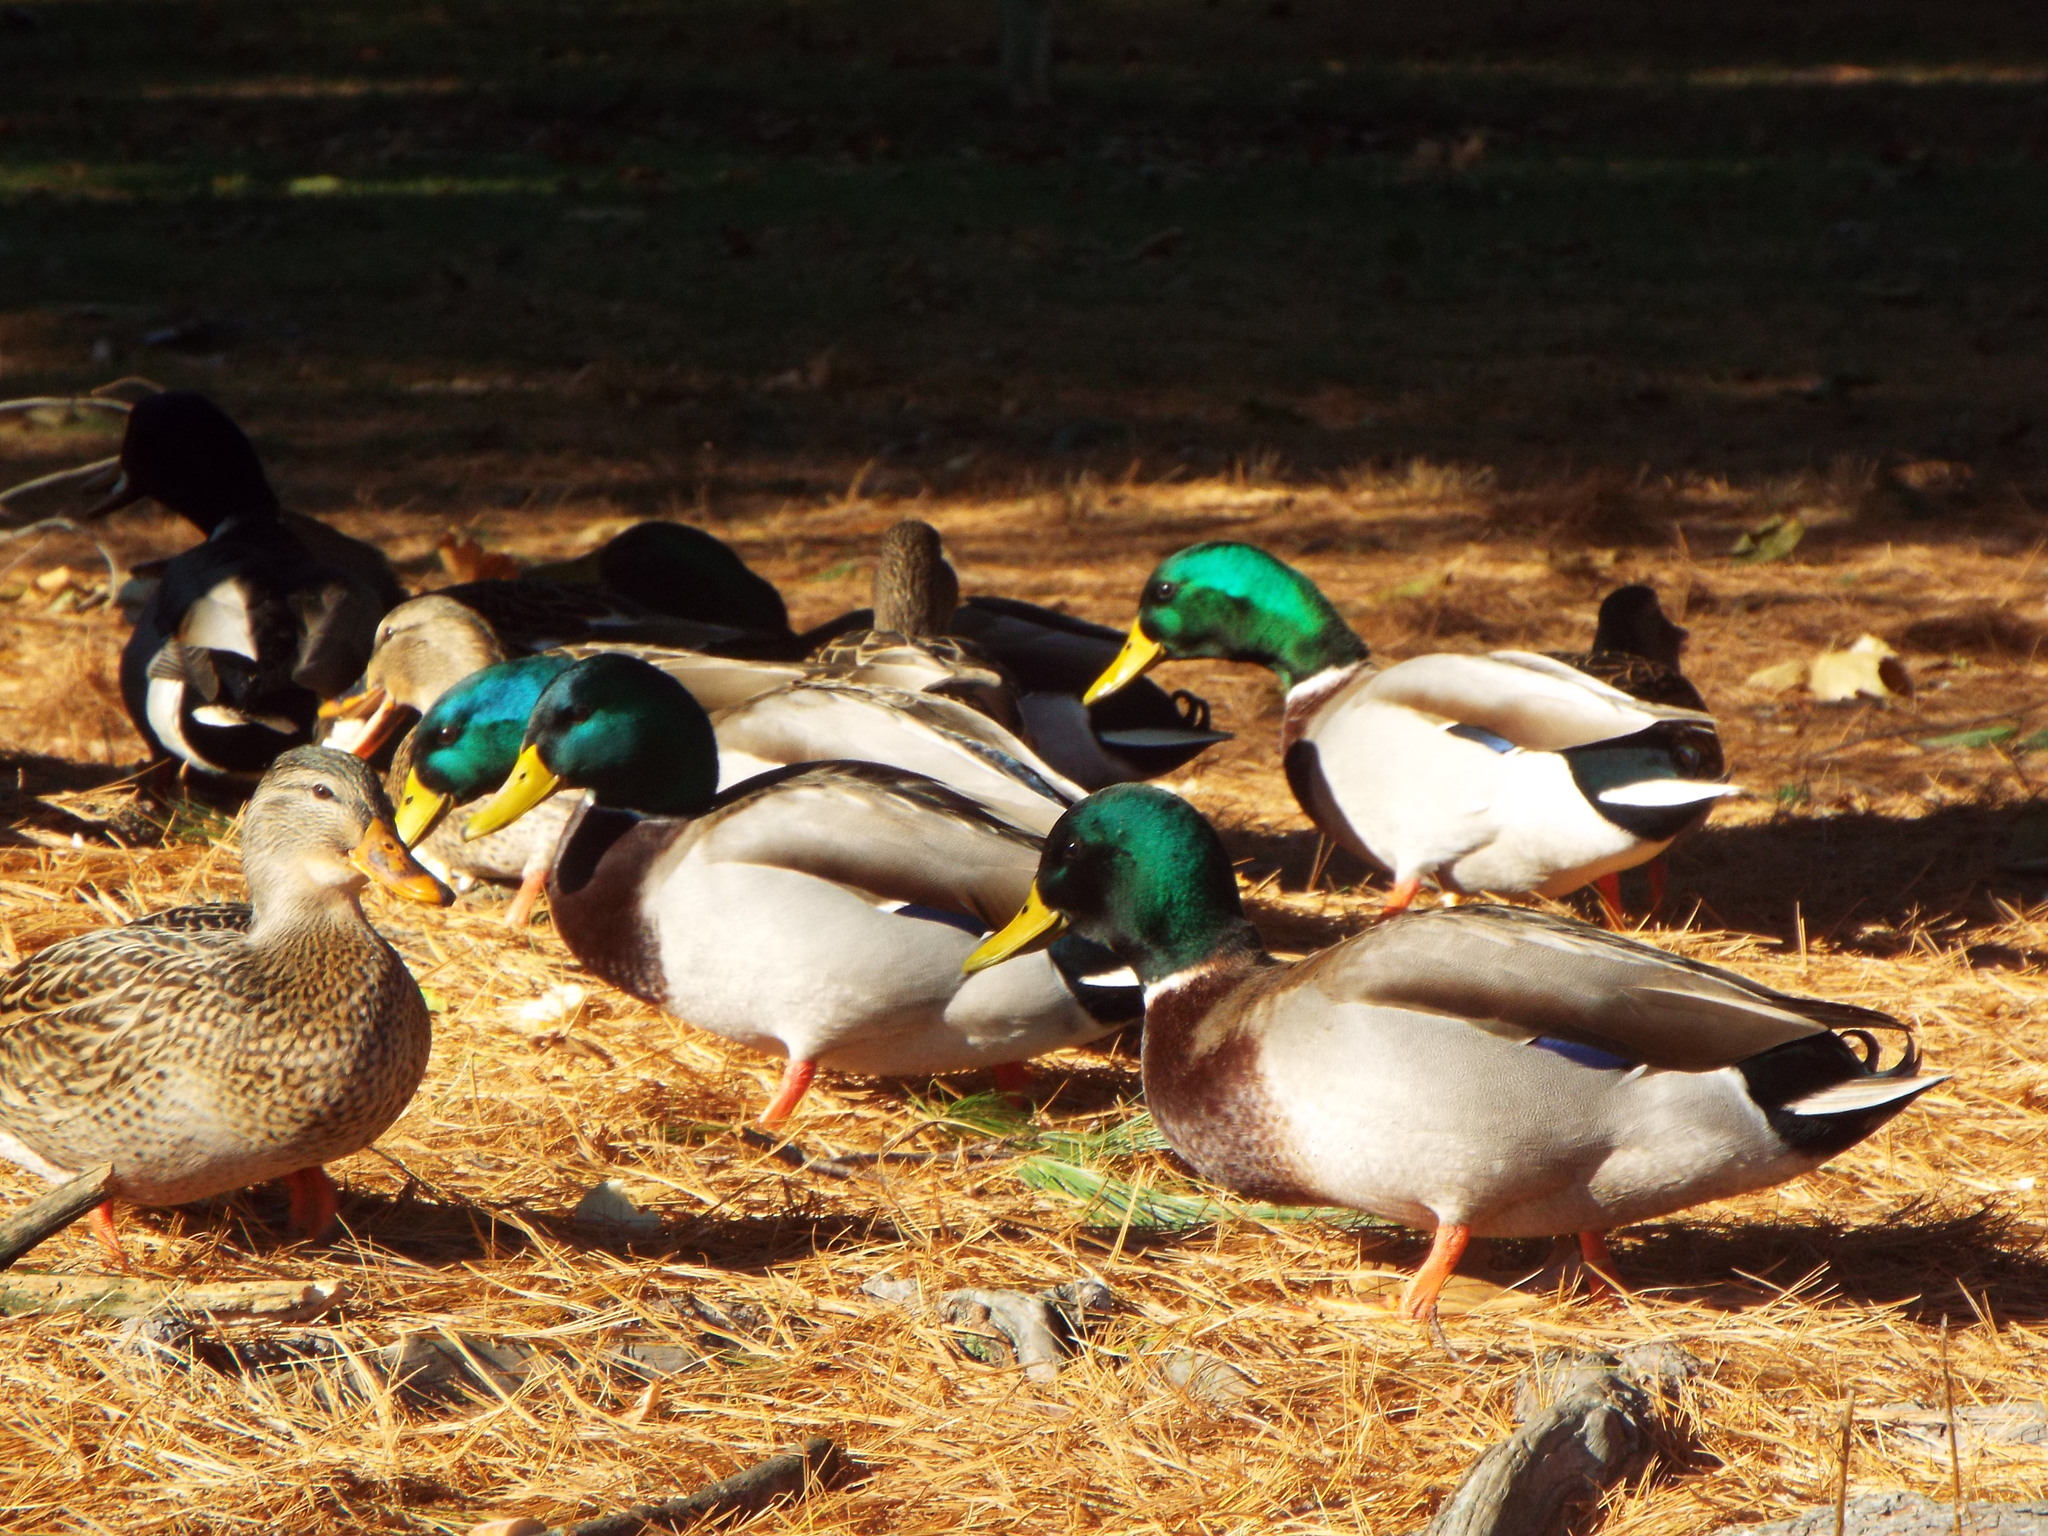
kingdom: Animalia
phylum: Chordata
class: Aves
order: Anseriformes
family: Anatidae
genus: Anas
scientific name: Anas platyrhynchos
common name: Mallard
